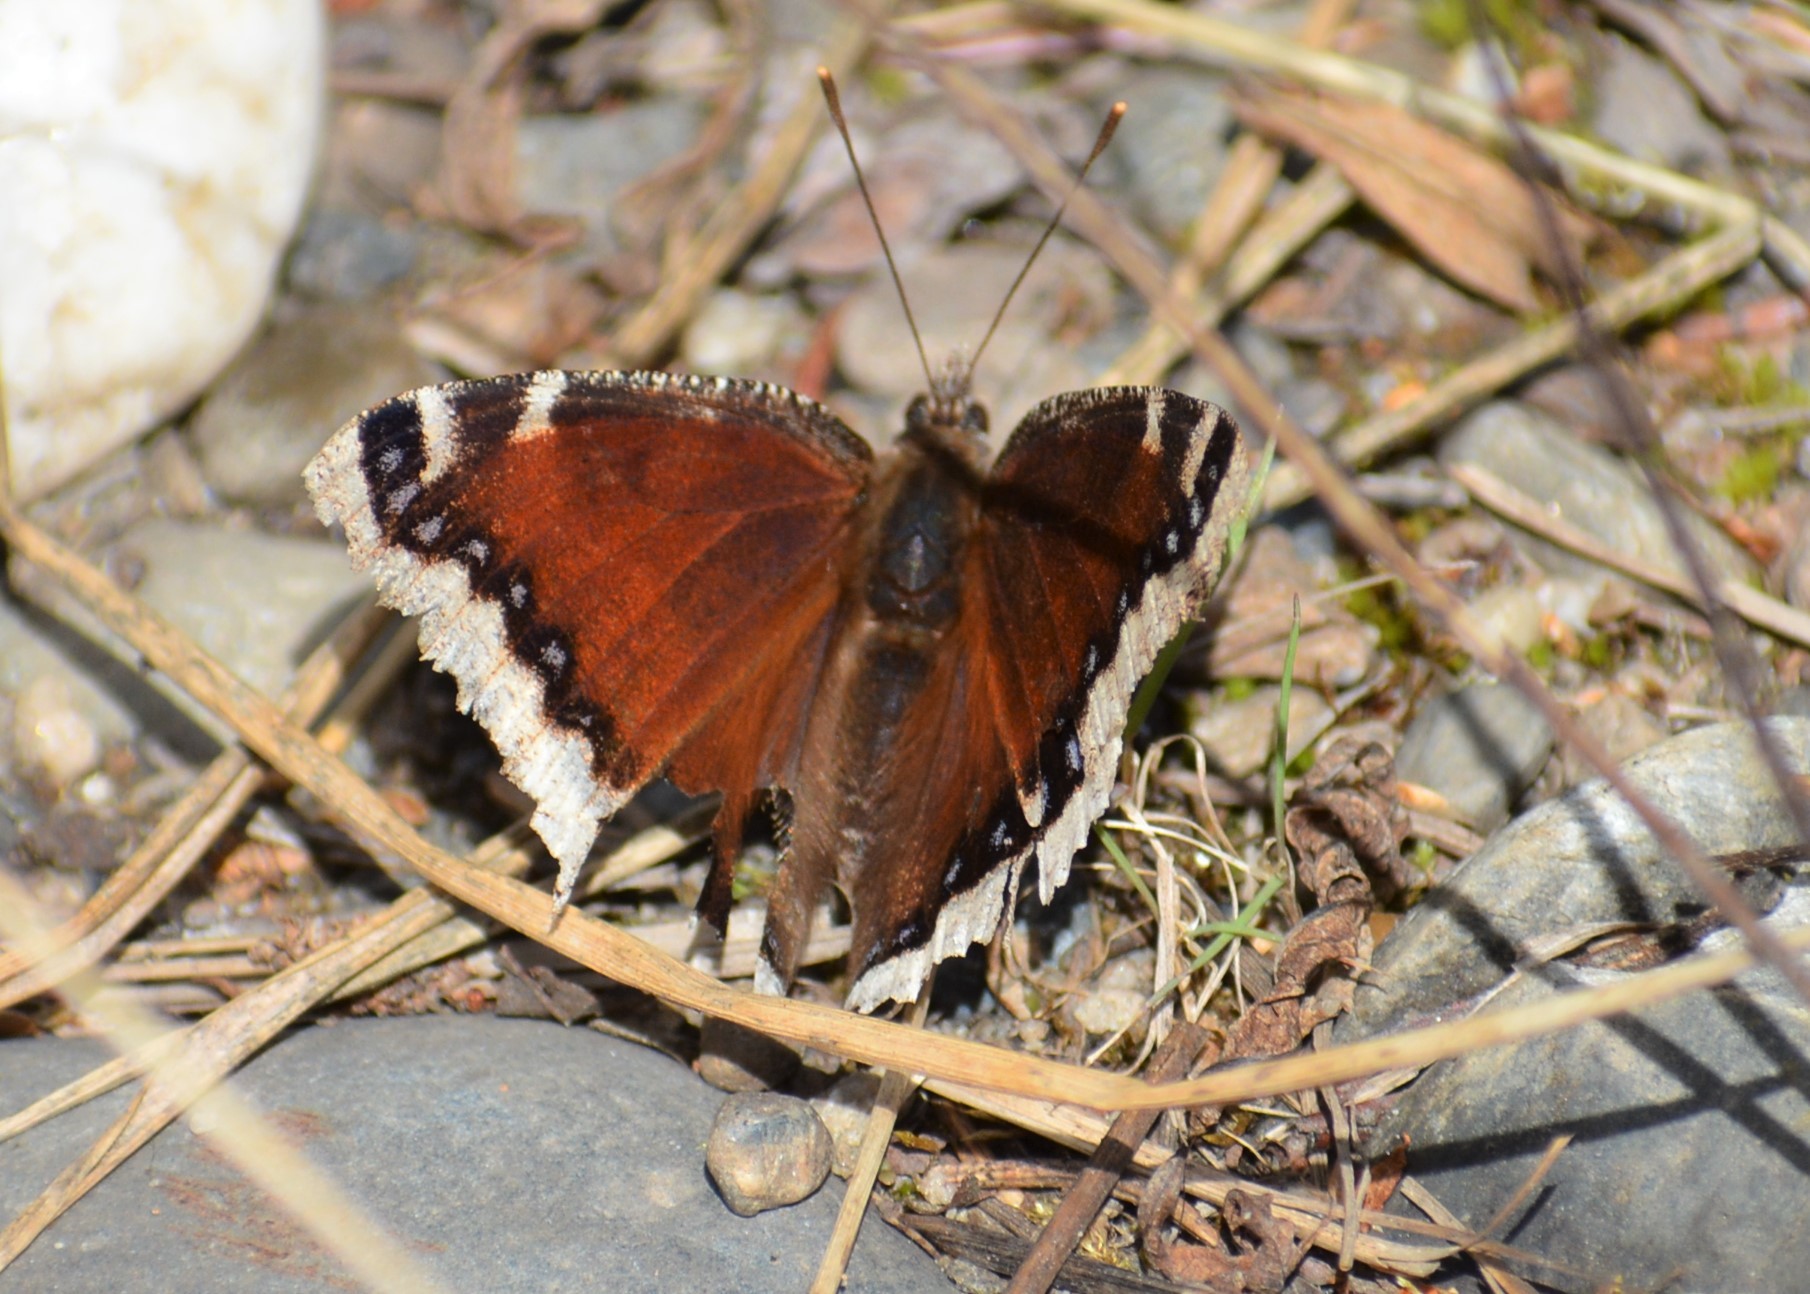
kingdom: Animalia
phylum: Arthropoda
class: Insecta
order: Lepidoptera
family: Nymphalidae
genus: Nymphalis
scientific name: Nymphalis antiopa
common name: Camberwell beauty
